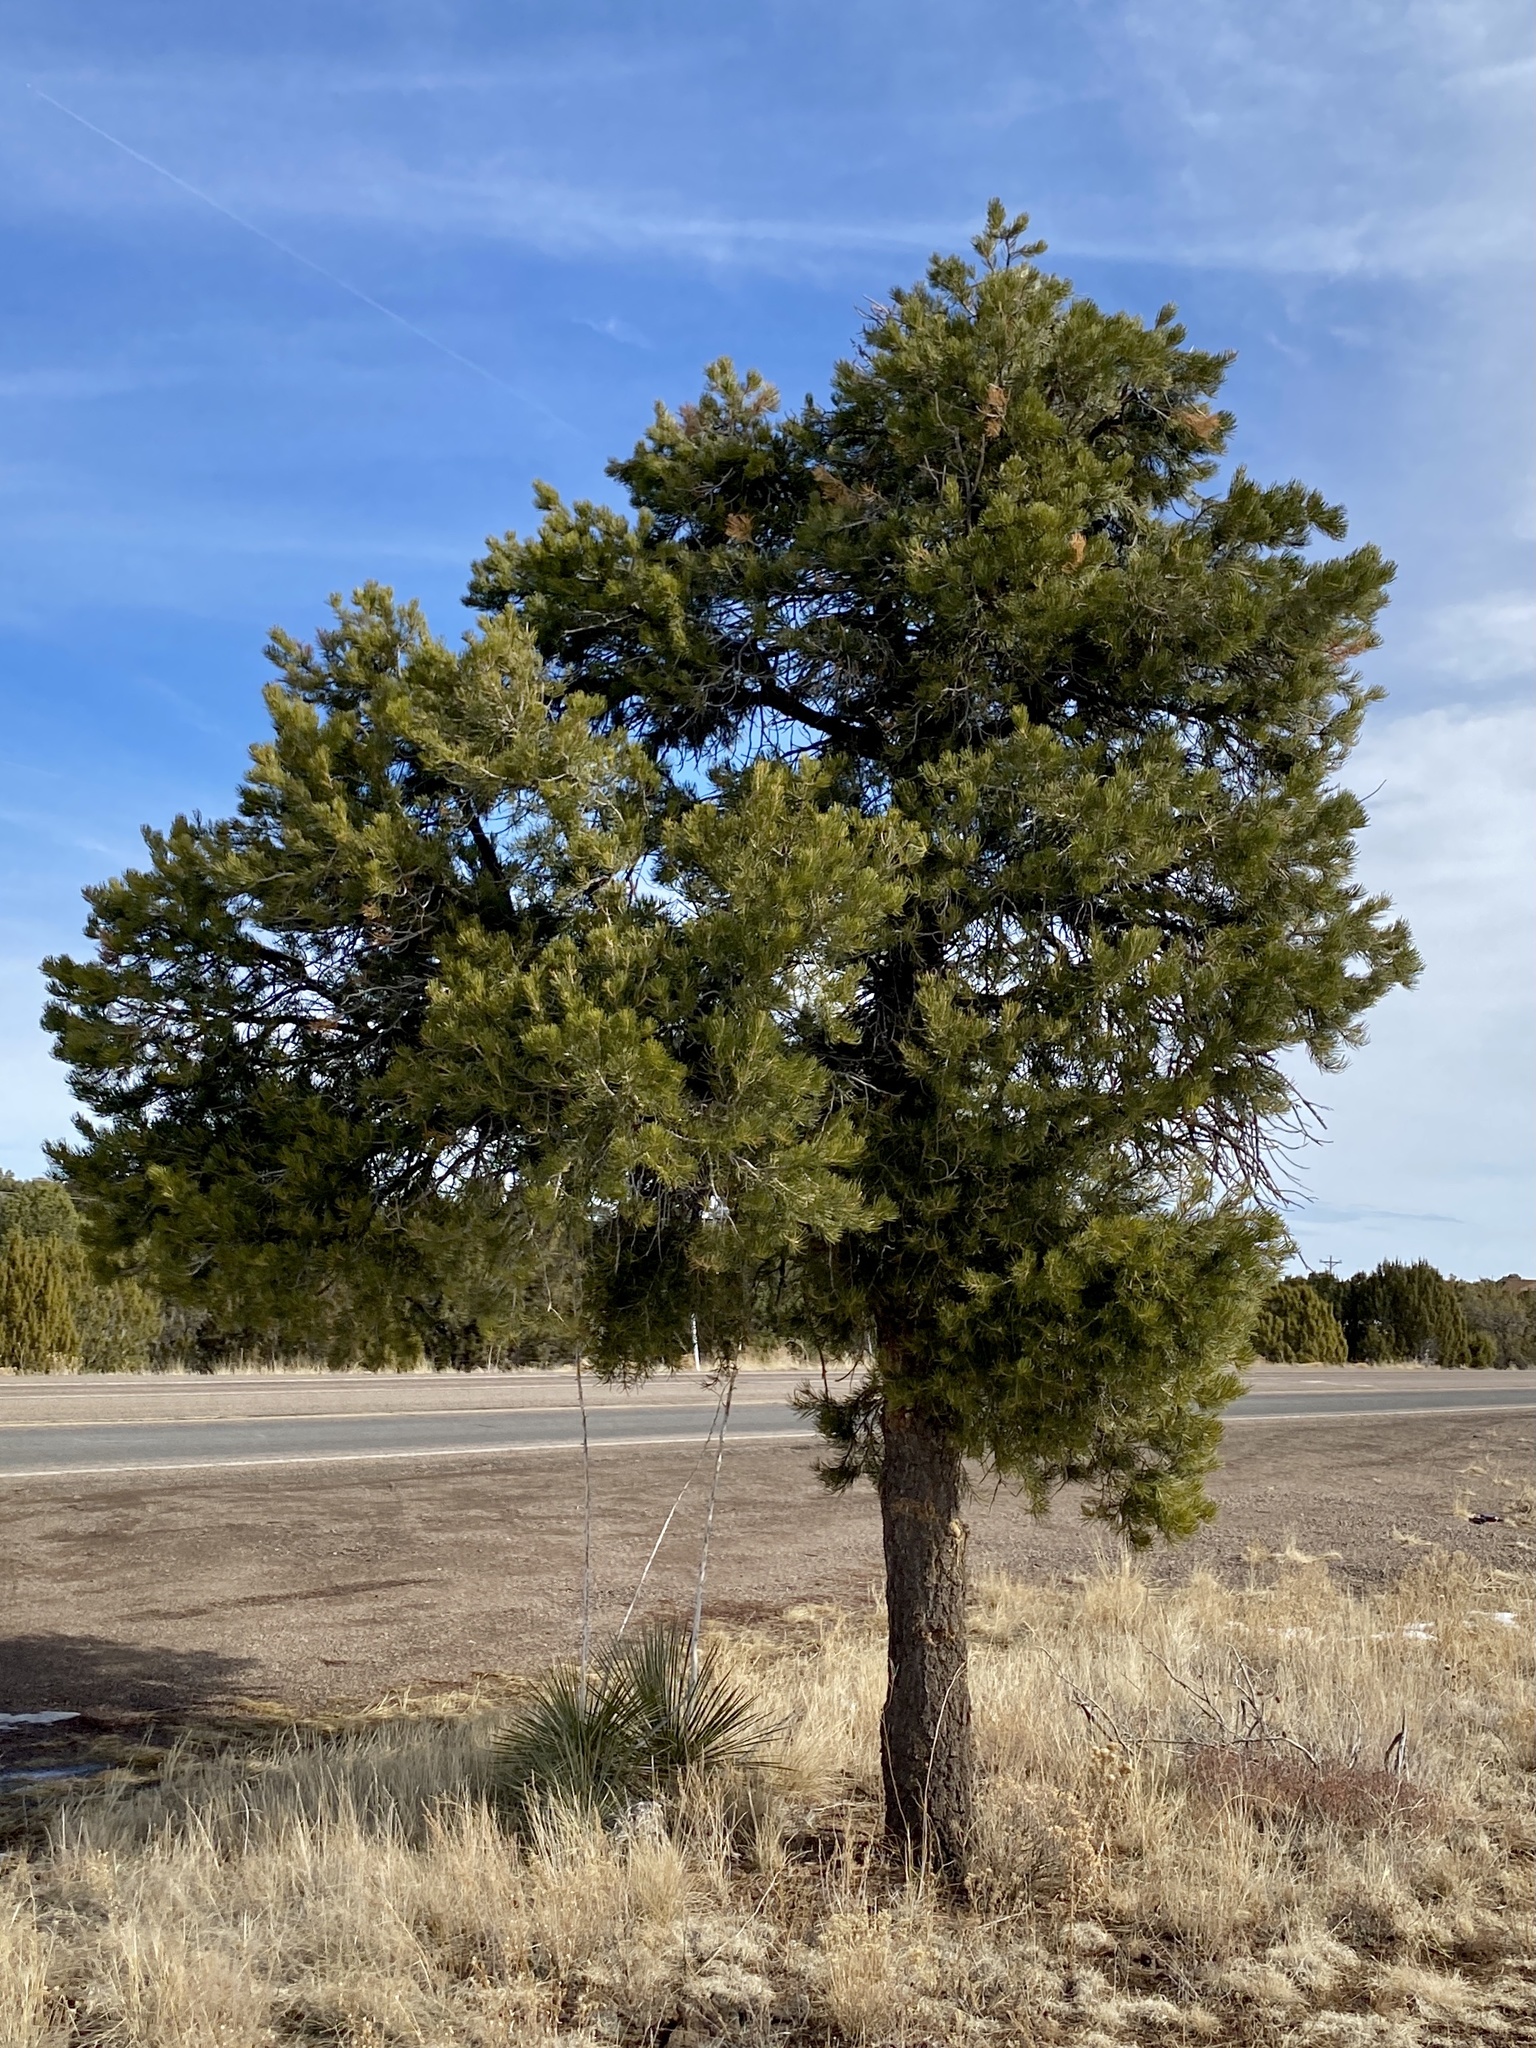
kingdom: Plantae
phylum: Tracheophyta
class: Pinopsida
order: Pinales
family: Pinaceae
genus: Pinus
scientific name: Pinus edulis
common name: Colorado pinyon
